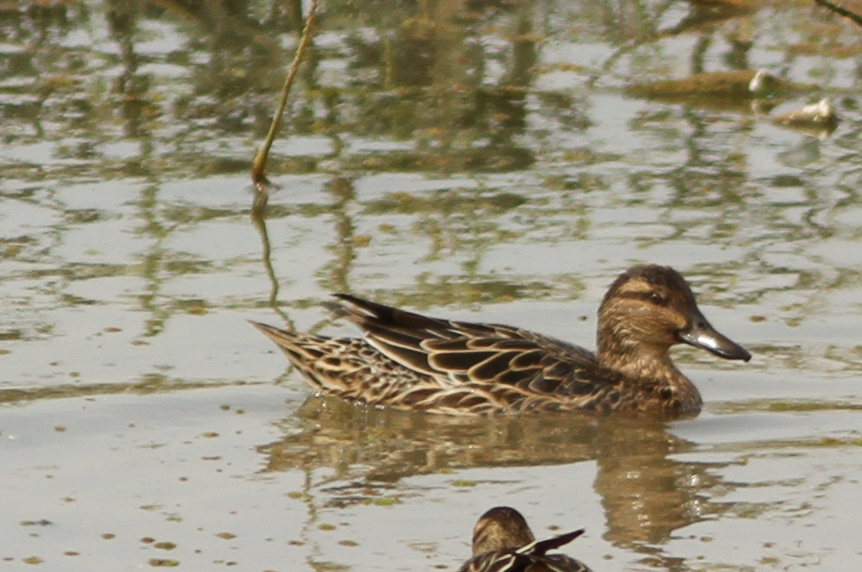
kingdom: Animalia
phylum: Chordata
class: Aves
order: Anseriformes
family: Anatidae
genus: Spatula
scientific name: Spatula querquedula
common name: Garganey
